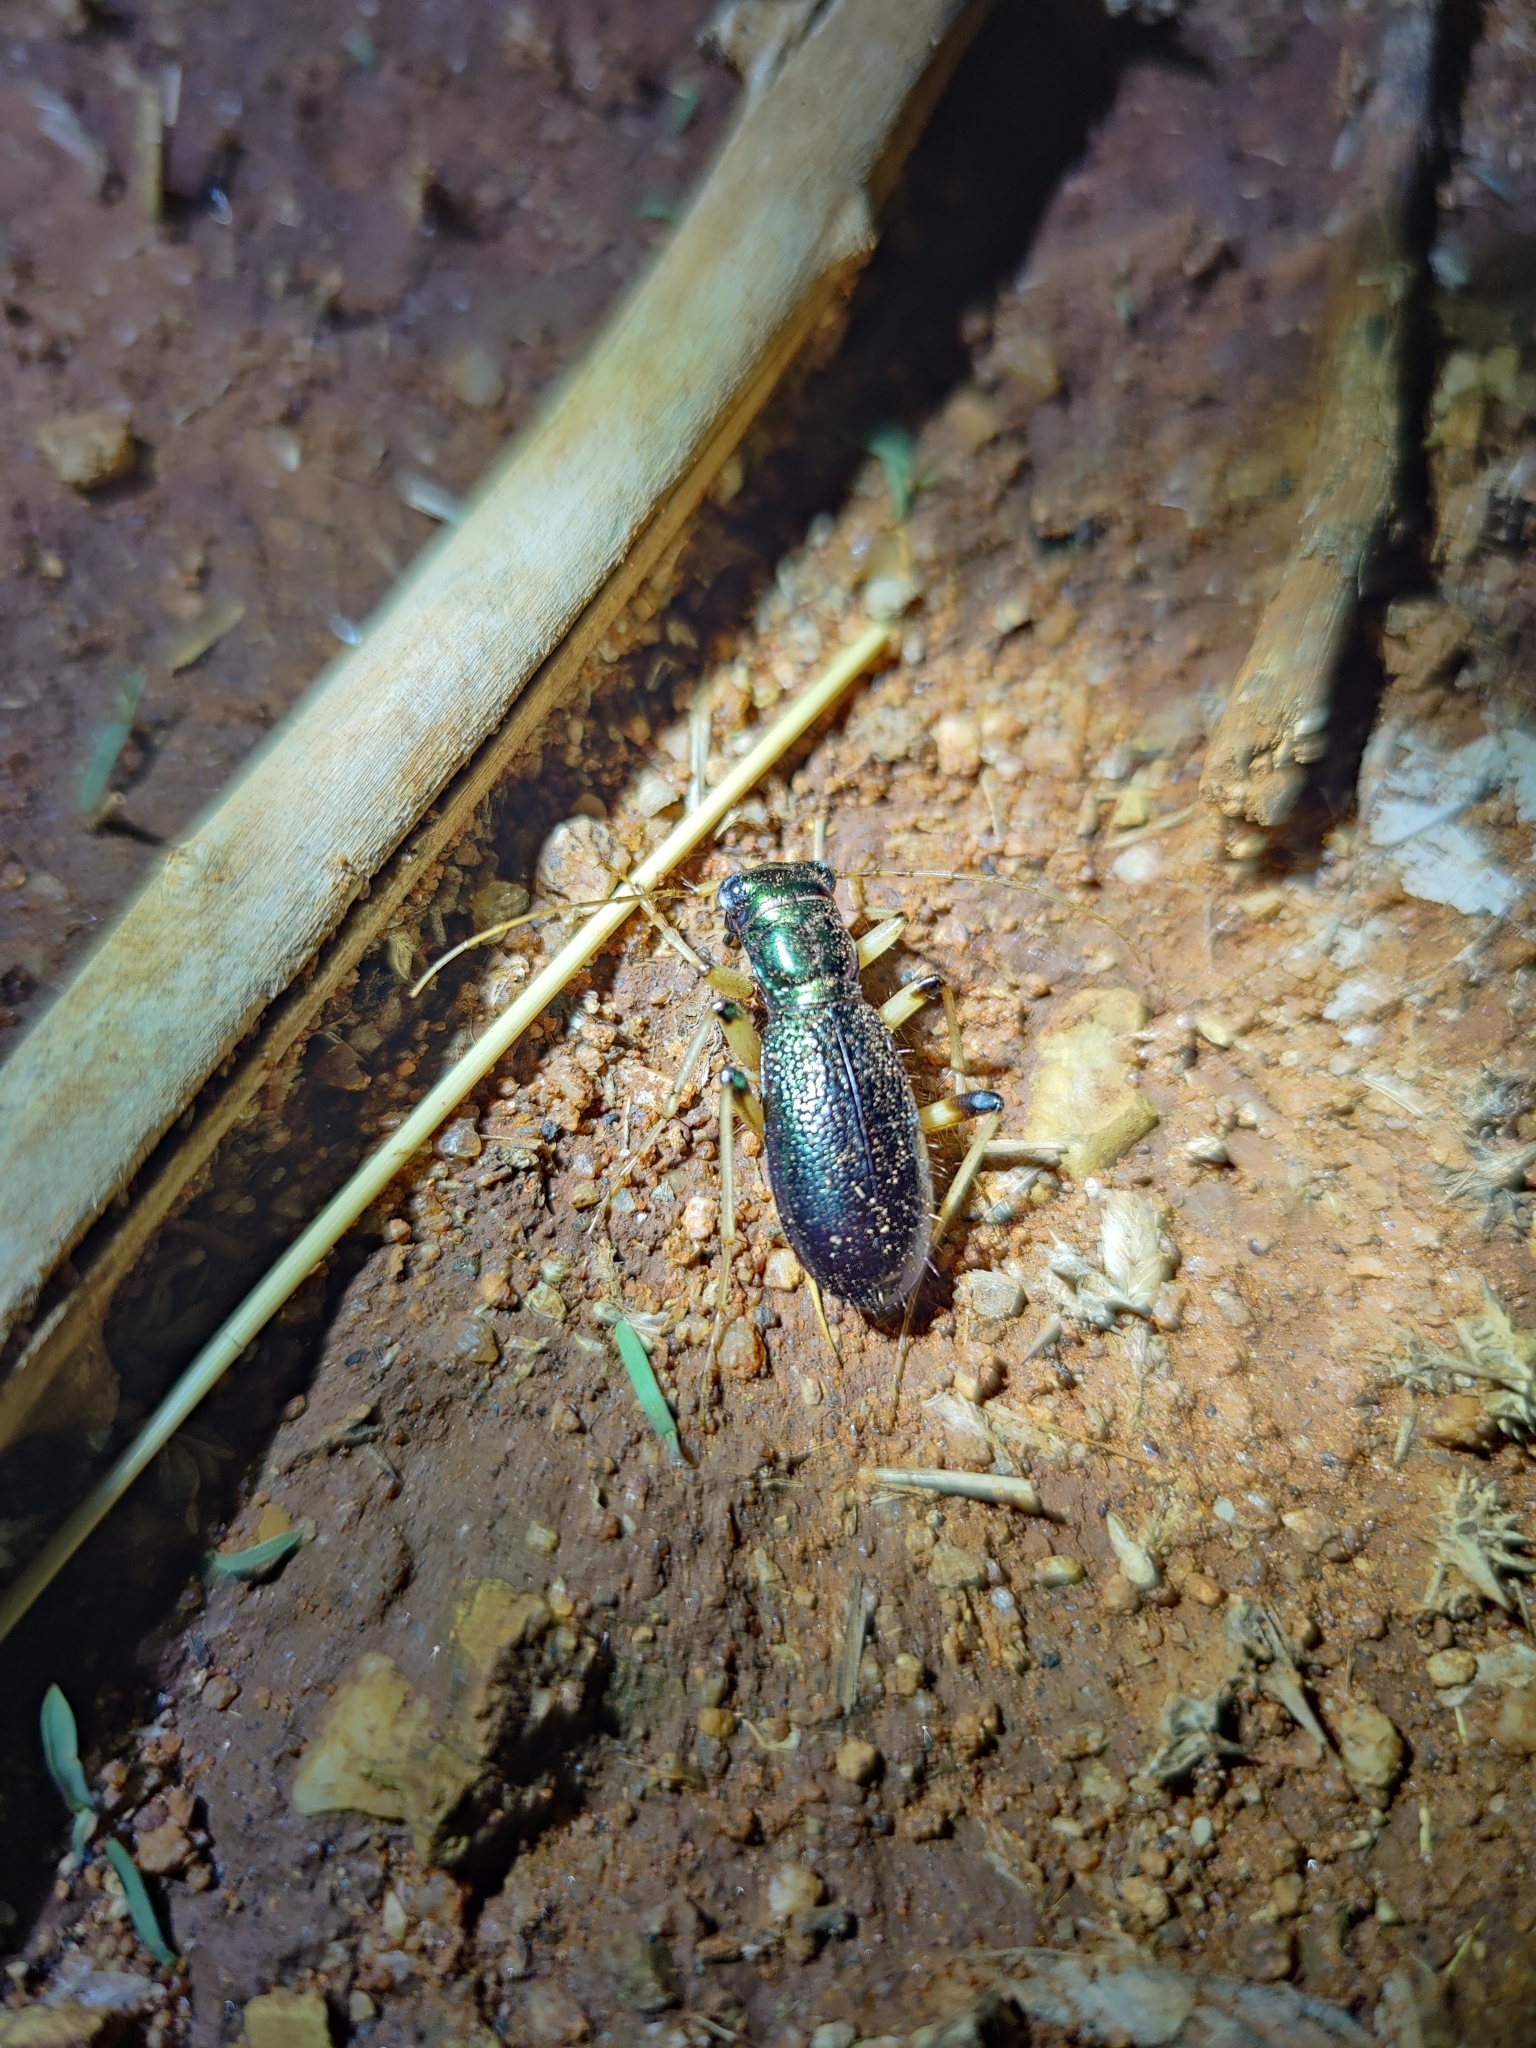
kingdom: Animalia
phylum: Arthropoda
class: Insecta
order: Coleoptera
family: Carabidae
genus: Megacephala
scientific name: Megacephala regalis
